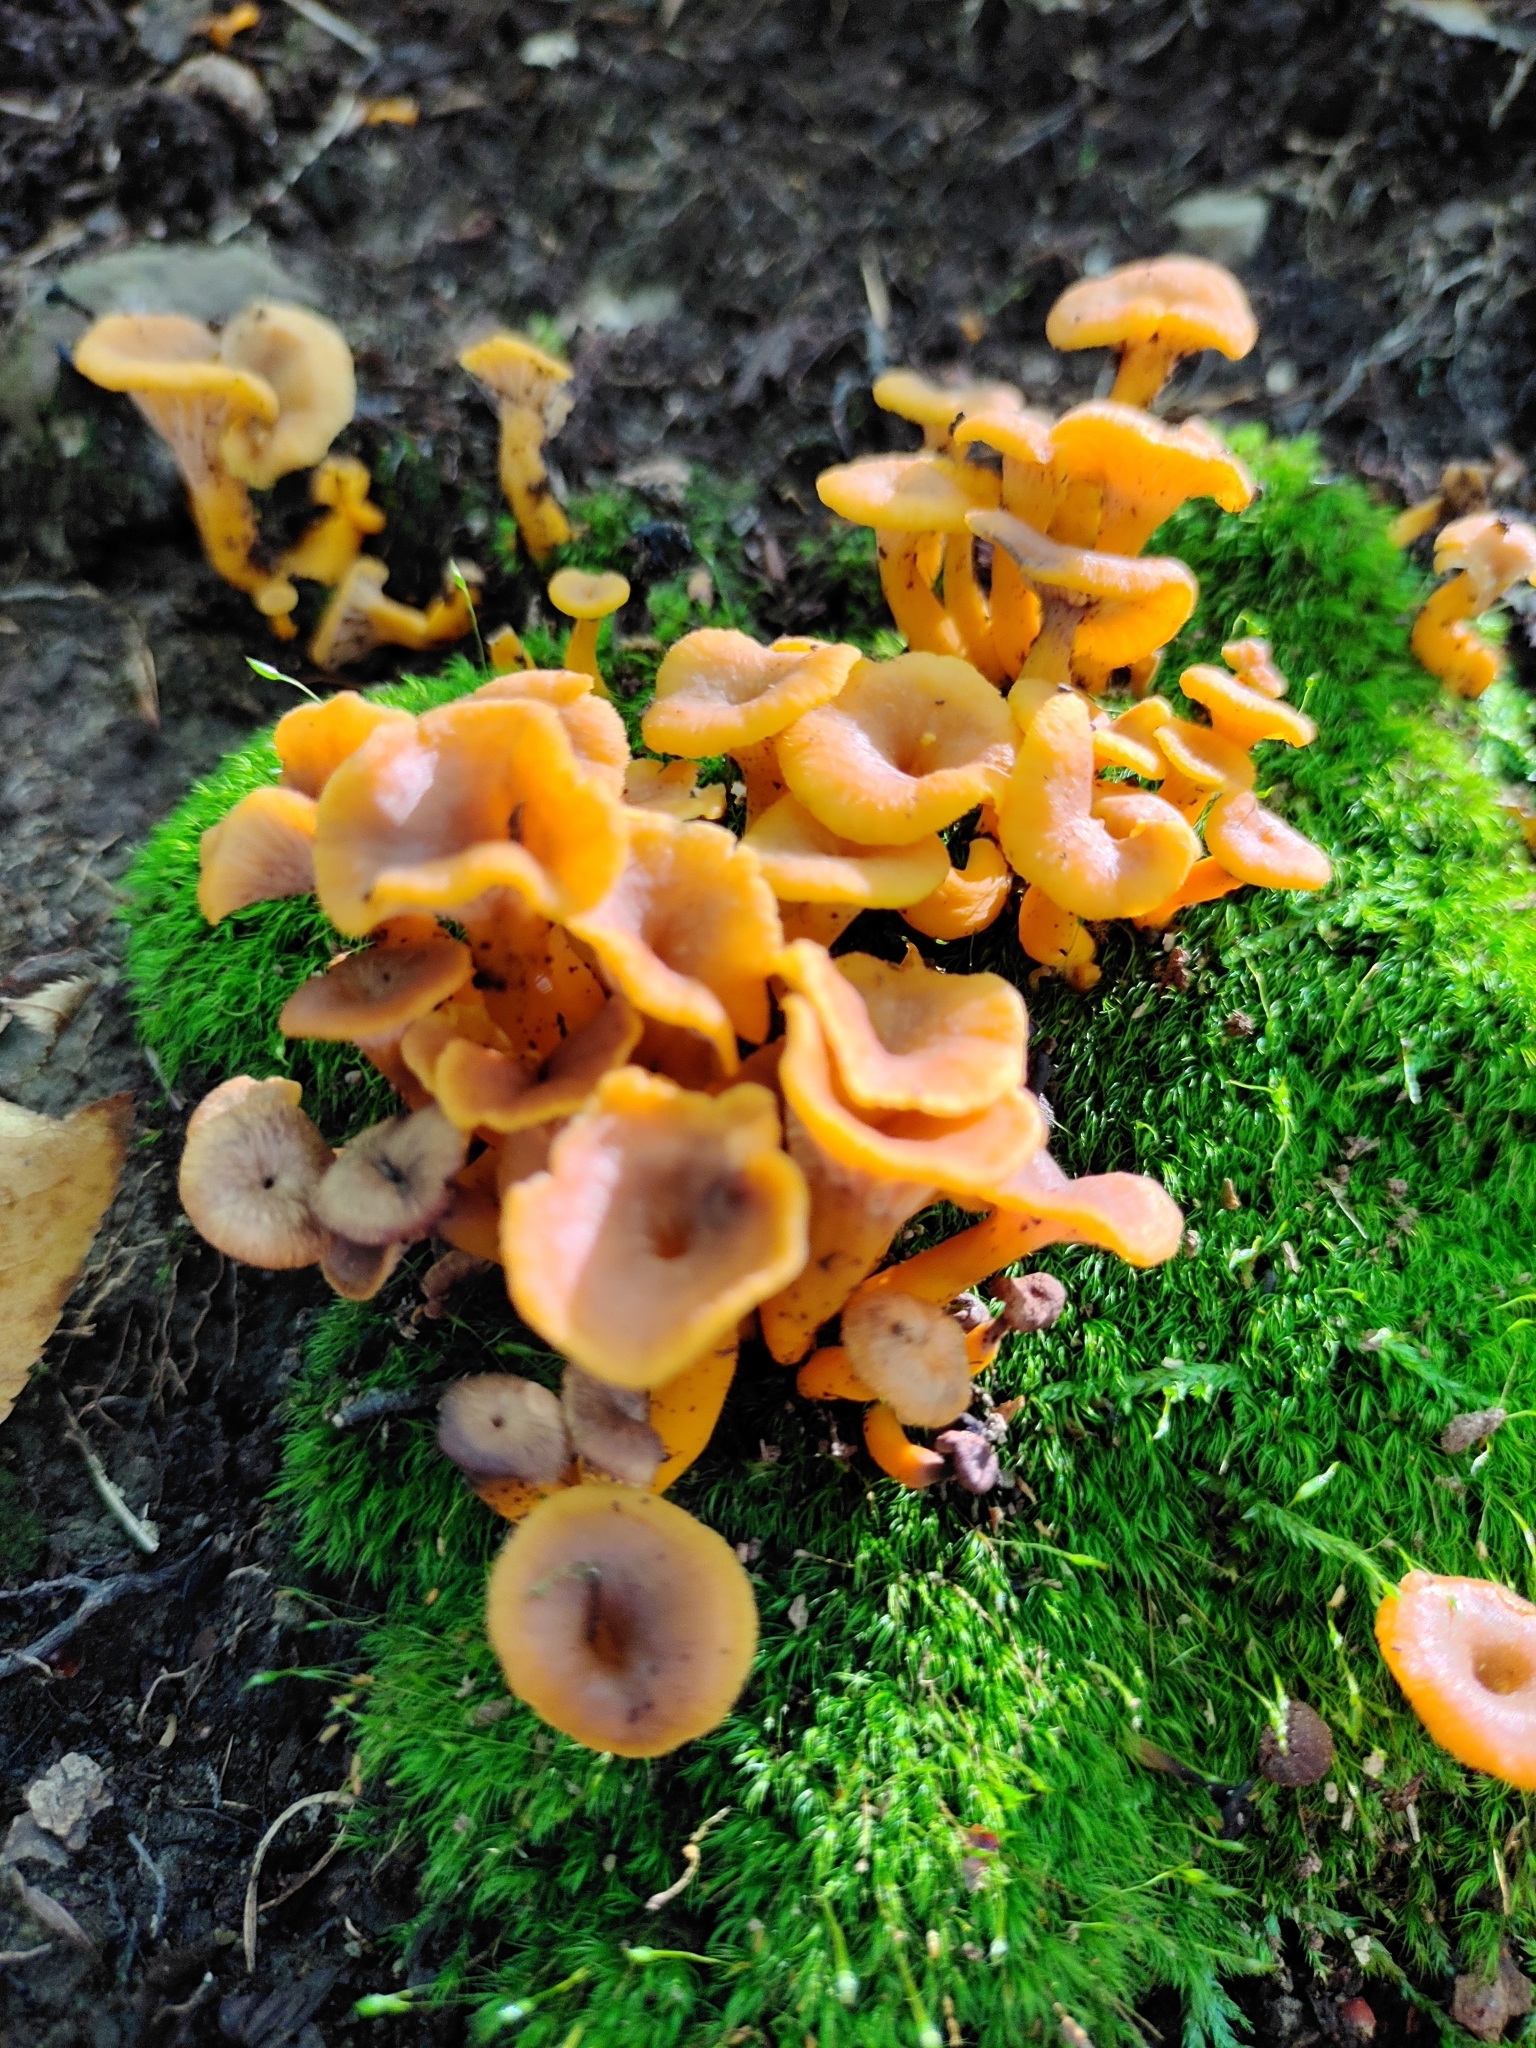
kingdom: Fungi
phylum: Basidiomycota
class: Agaricomycetes
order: Cantharellales
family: Hydnaceae
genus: Craterellus
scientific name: Craterellus ignicolor
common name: Flame chanterelle
